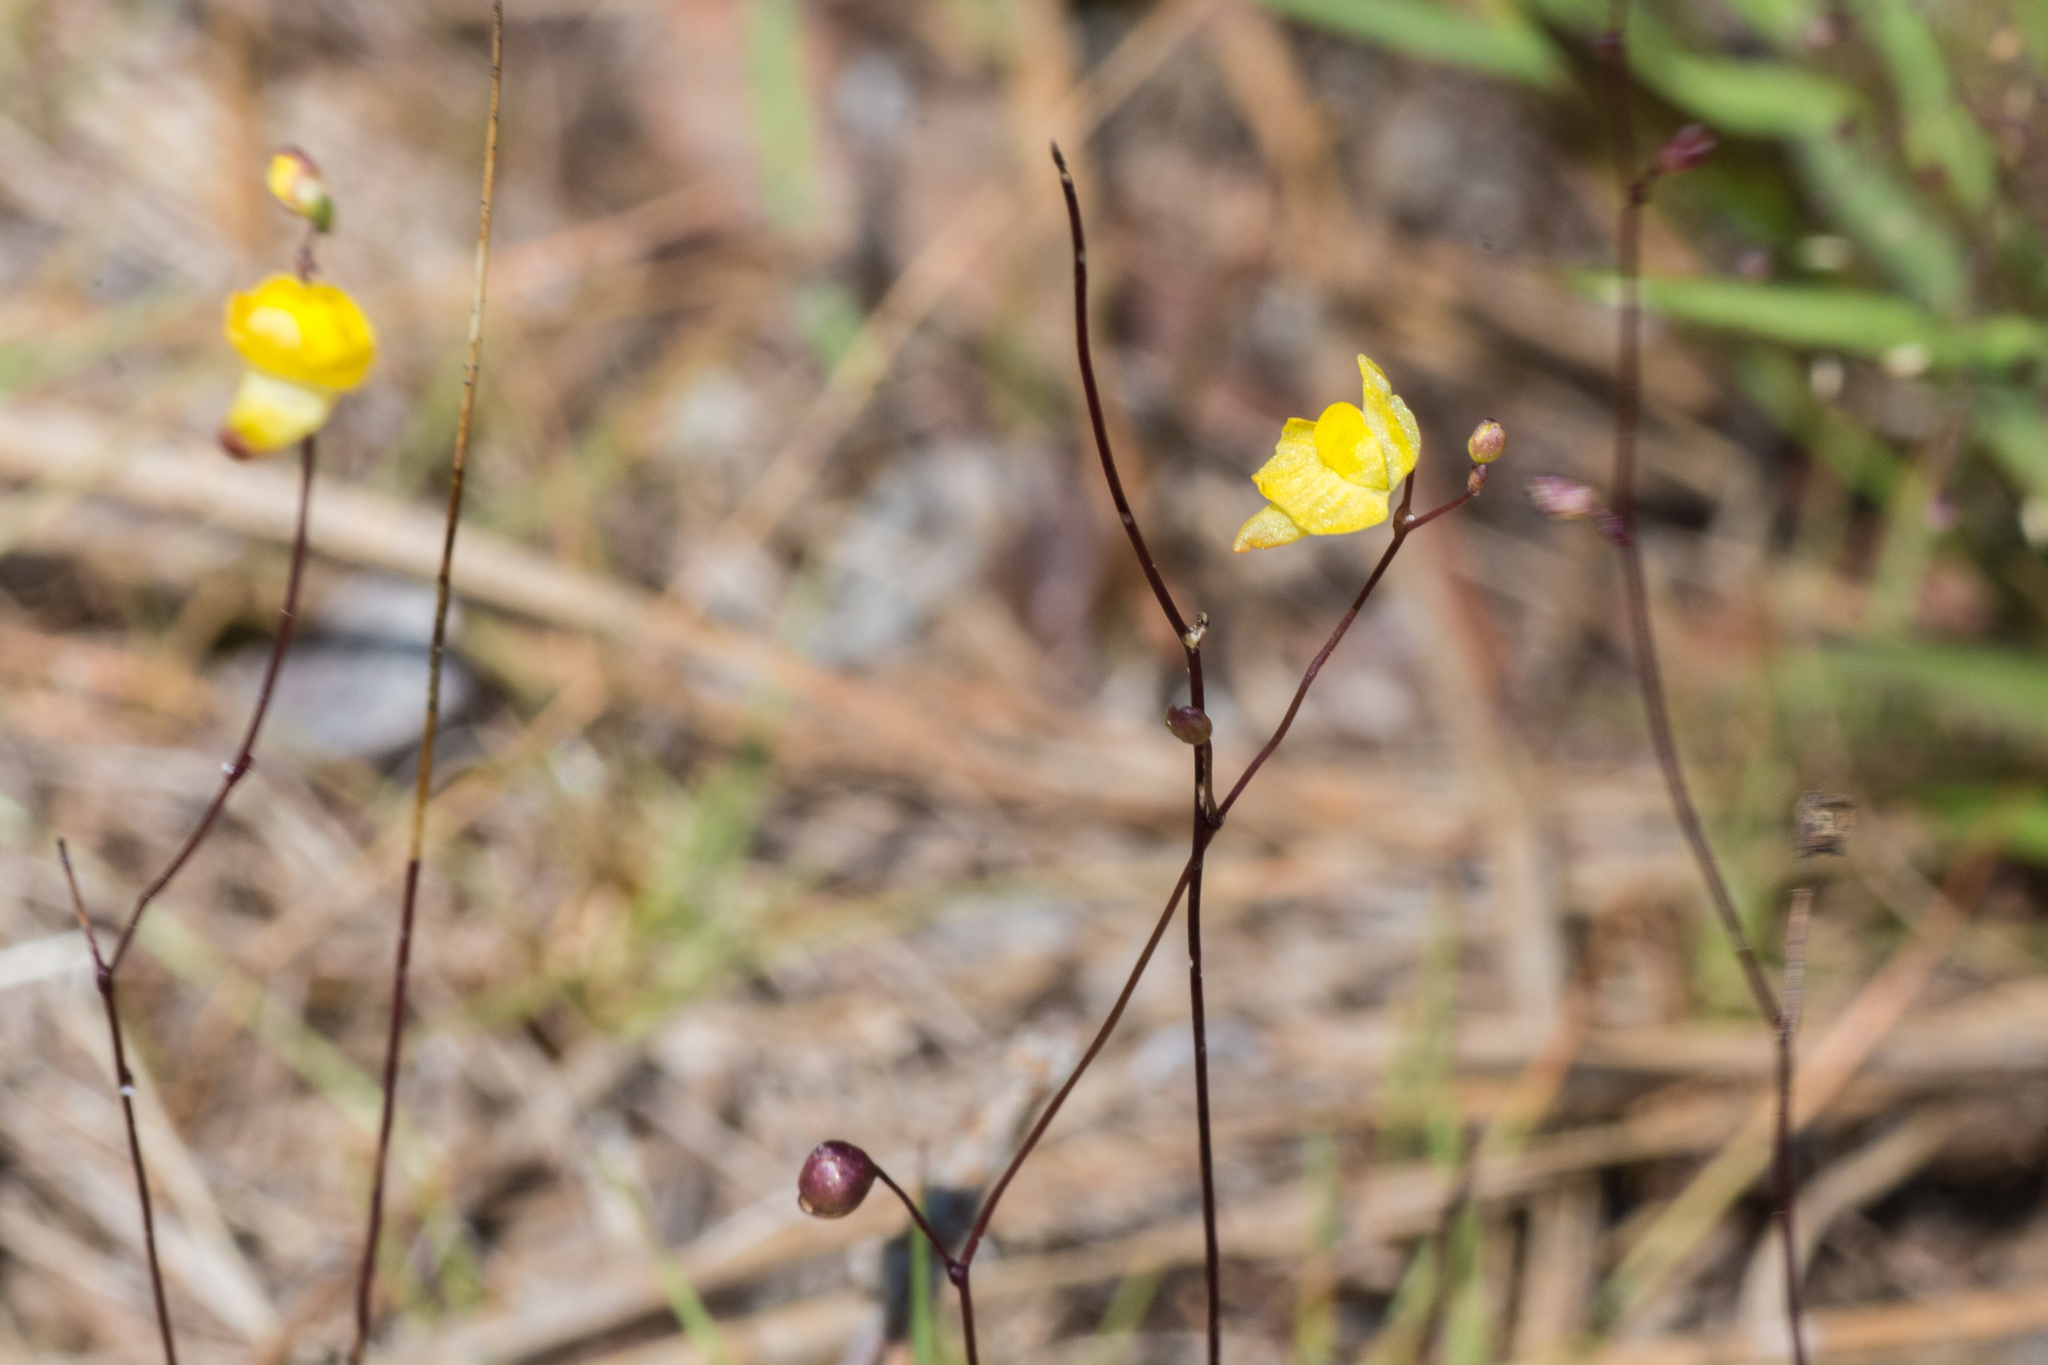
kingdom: Plantae
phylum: Tracheophyta
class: Magnoliopsida
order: Lamiales
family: Lentibulariaceae
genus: Utricularia
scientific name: Utricularia subulata
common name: Tiny bladderwort
